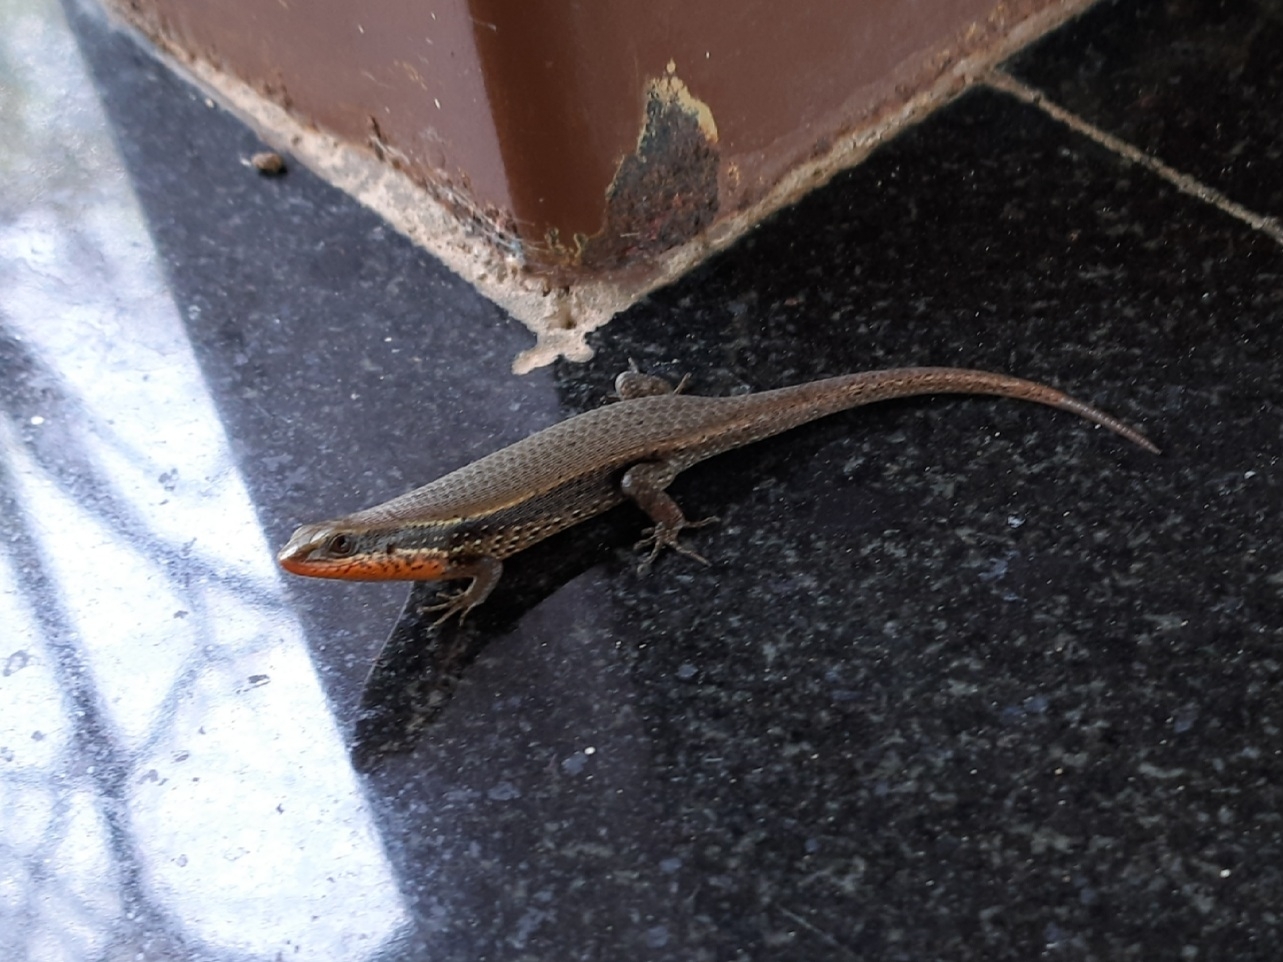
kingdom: Animalia
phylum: Chordata
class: Squamata
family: Scincidae
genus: Eutropis
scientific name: Eutropis macularia
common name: Bronze mabuya
